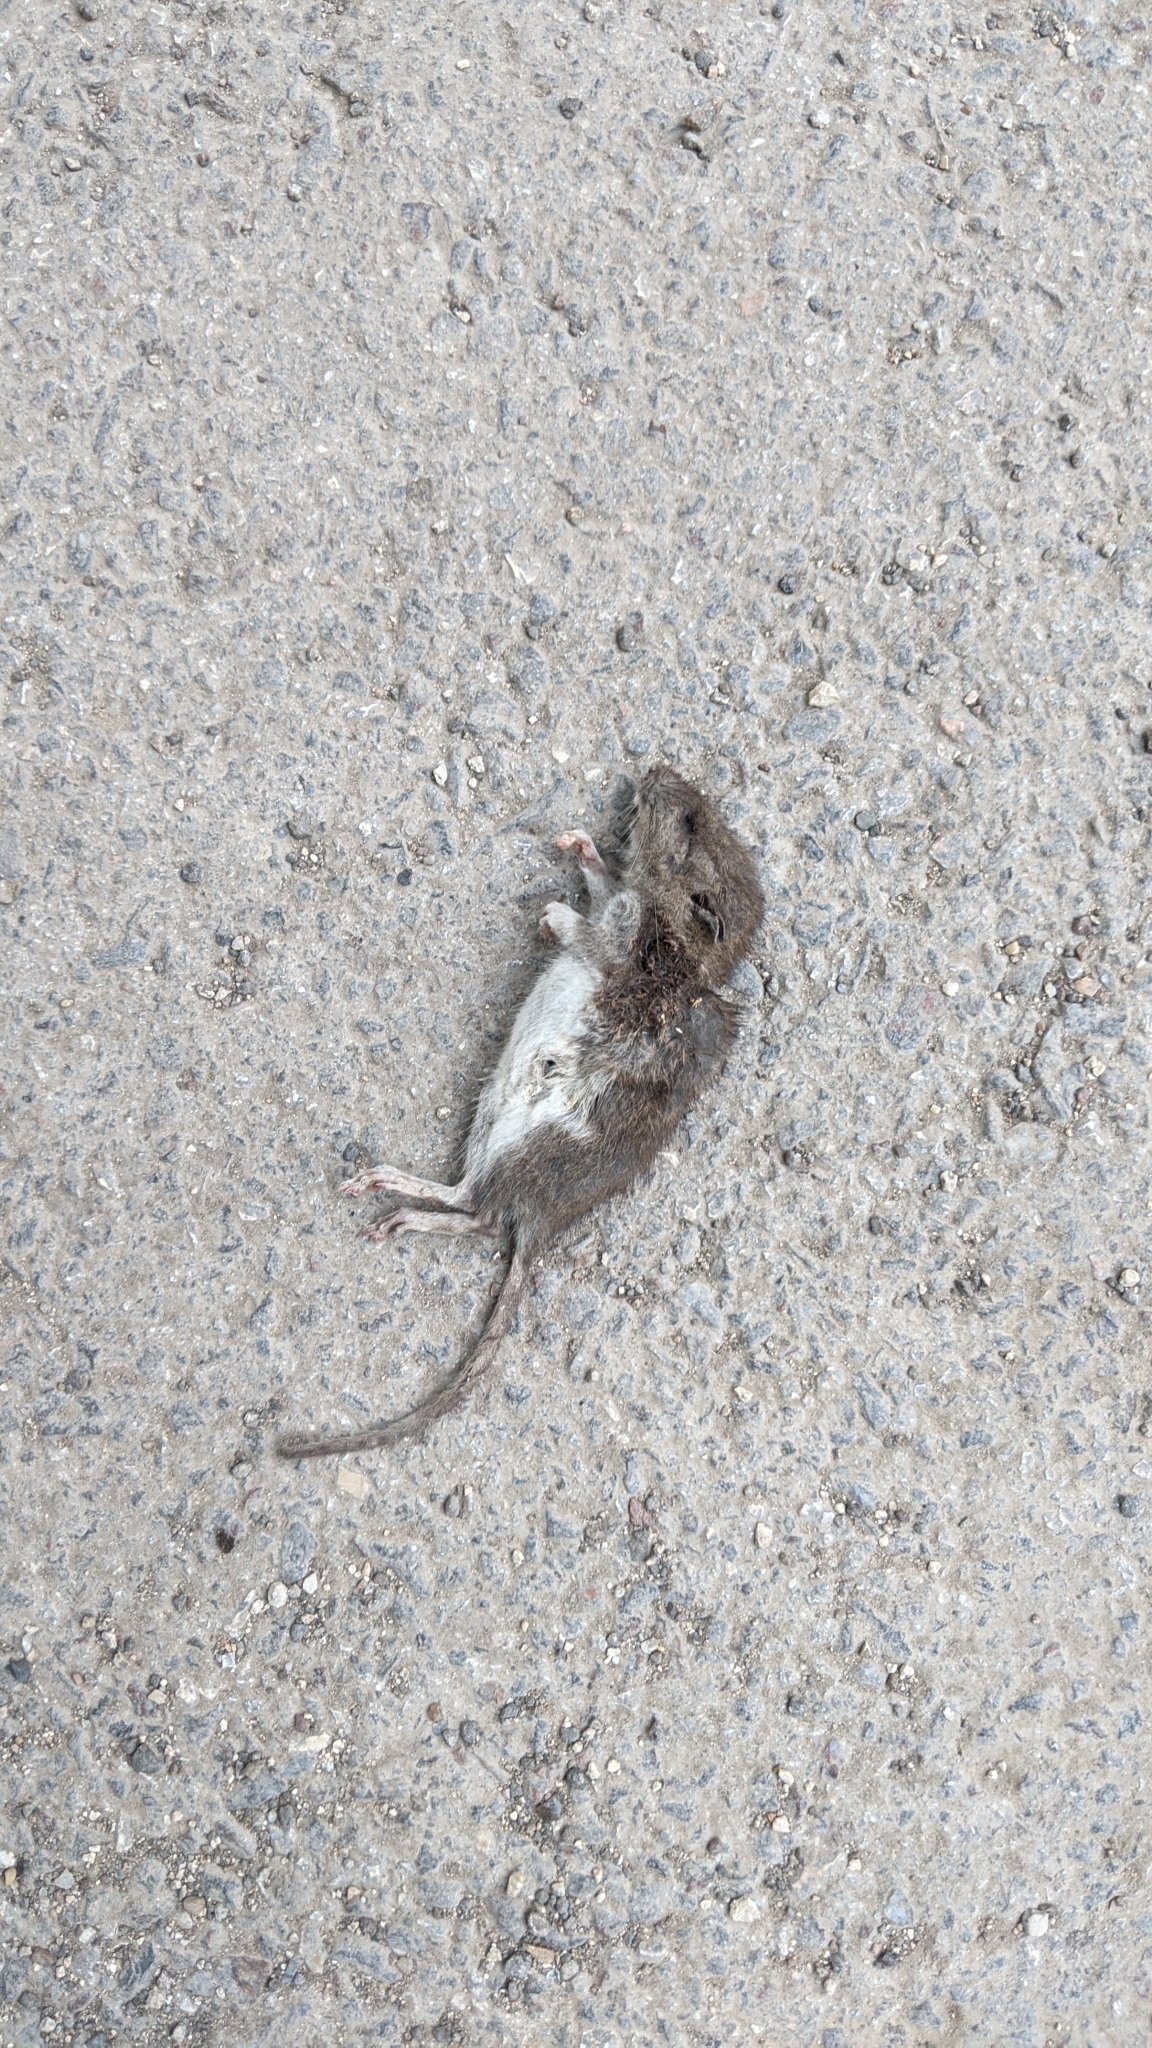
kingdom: Animalia
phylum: Chordata
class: Mammalia
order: Rodentia
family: Muridae
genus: Rattus
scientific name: Rattus norvegicus
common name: Brown rat
